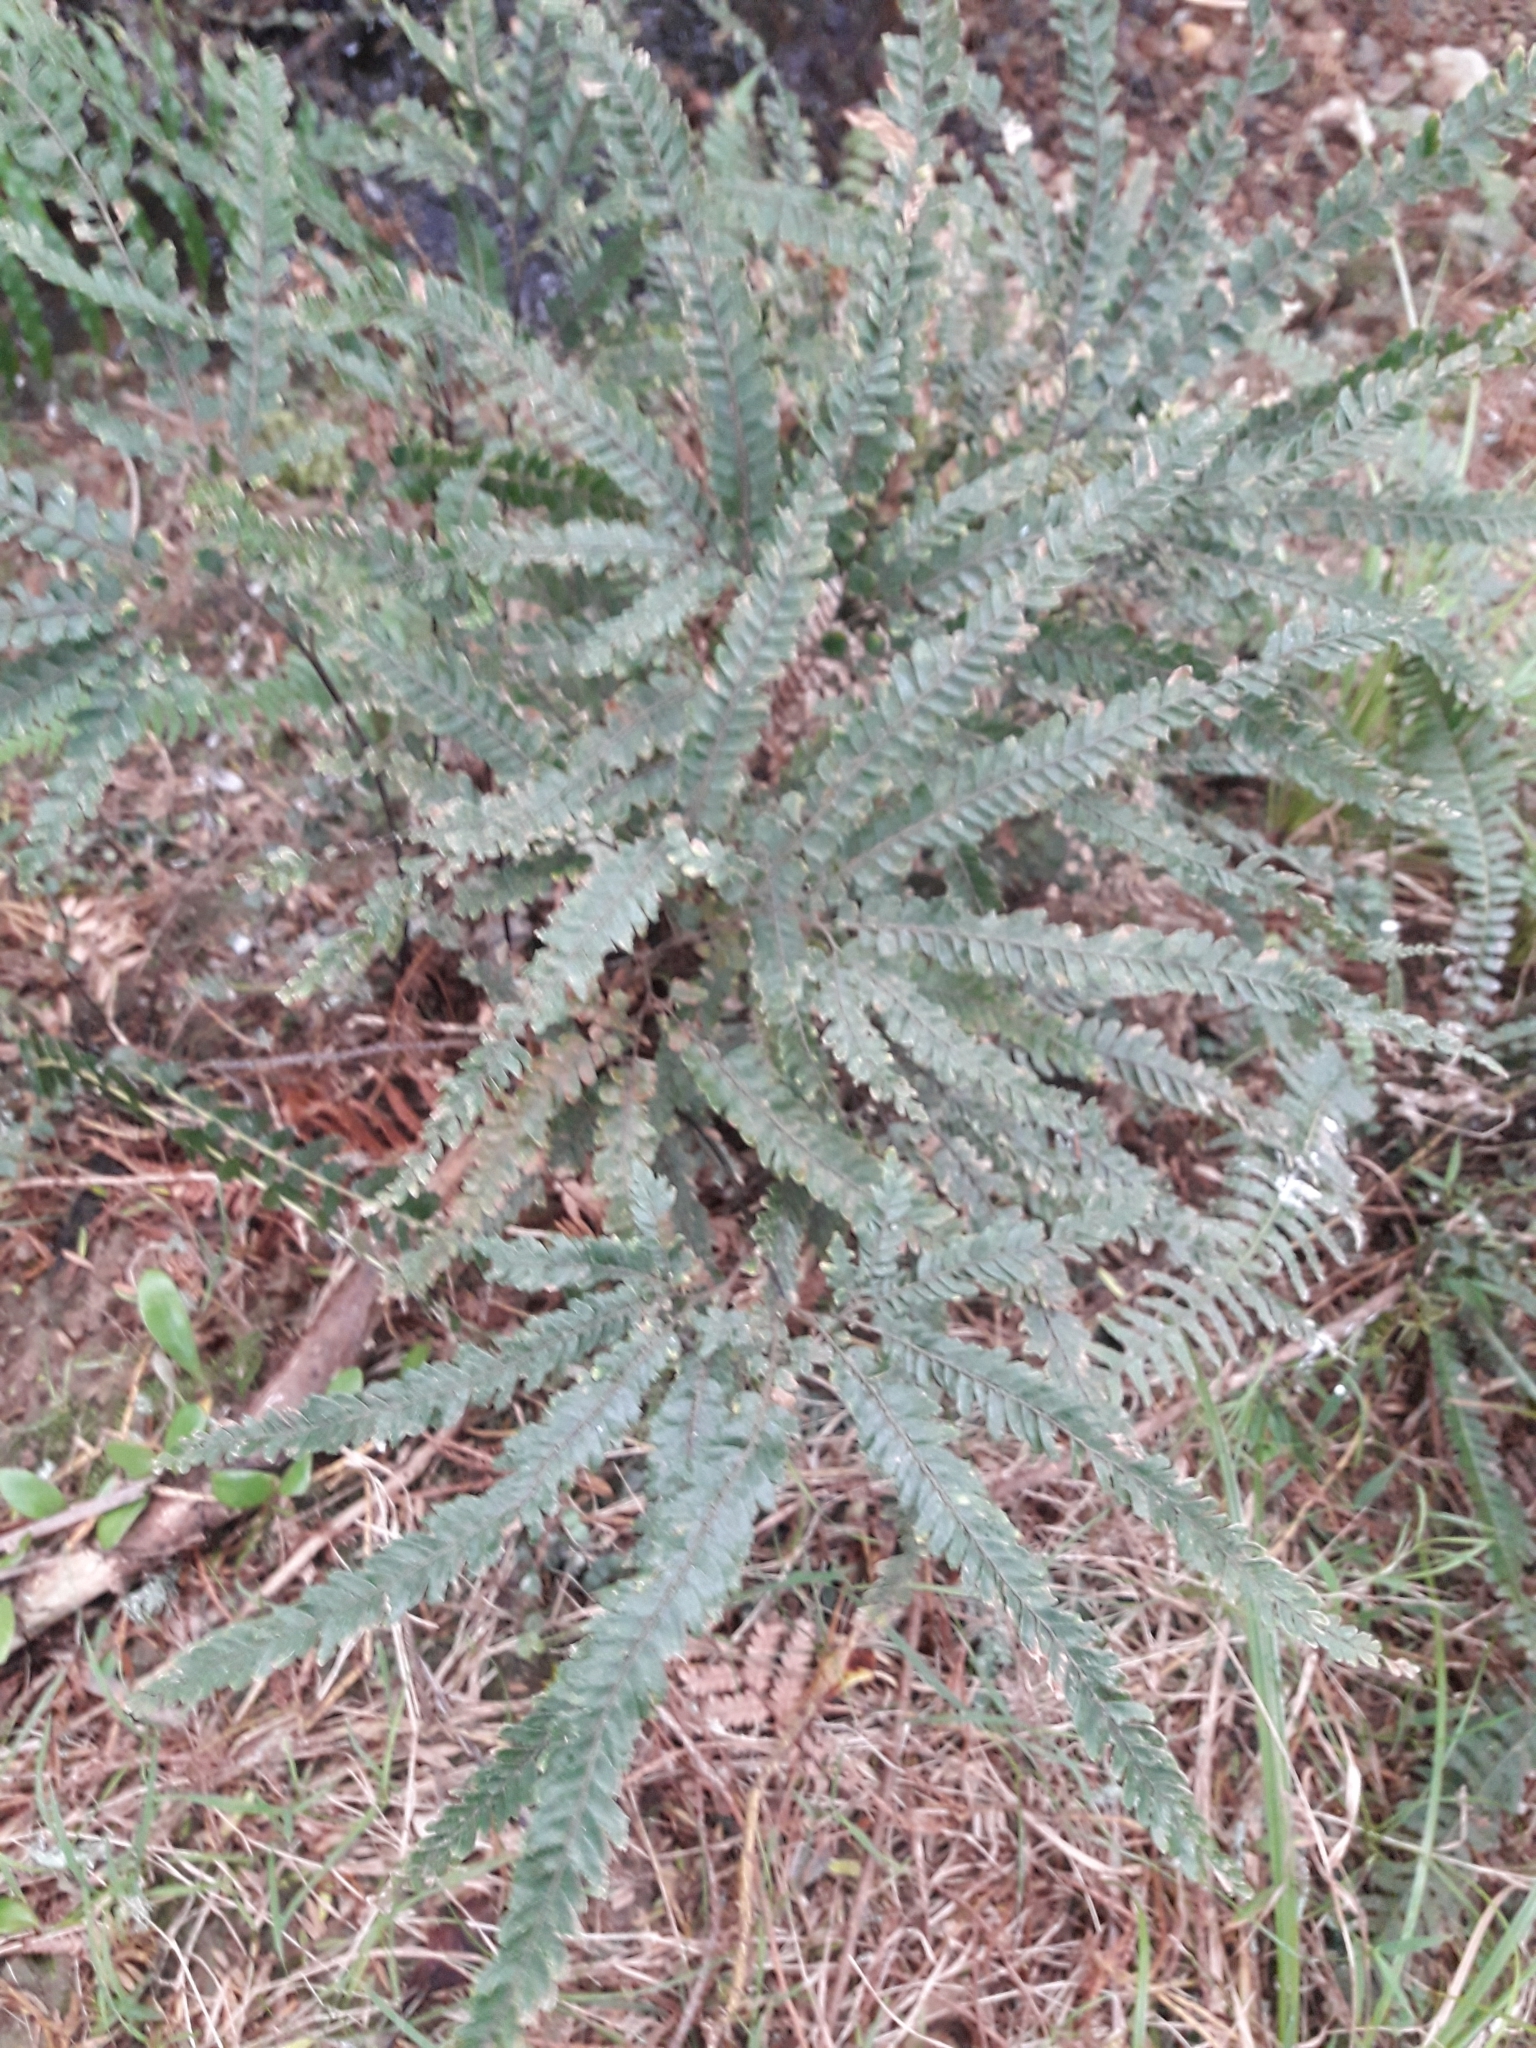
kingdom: Plantae
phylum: Tracheophyta
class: Polypodiopsida
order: Polypodiales
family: Pteridaceae
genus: Adiantum
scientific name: Adiantum hispidulum
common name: Rough maidenhair
